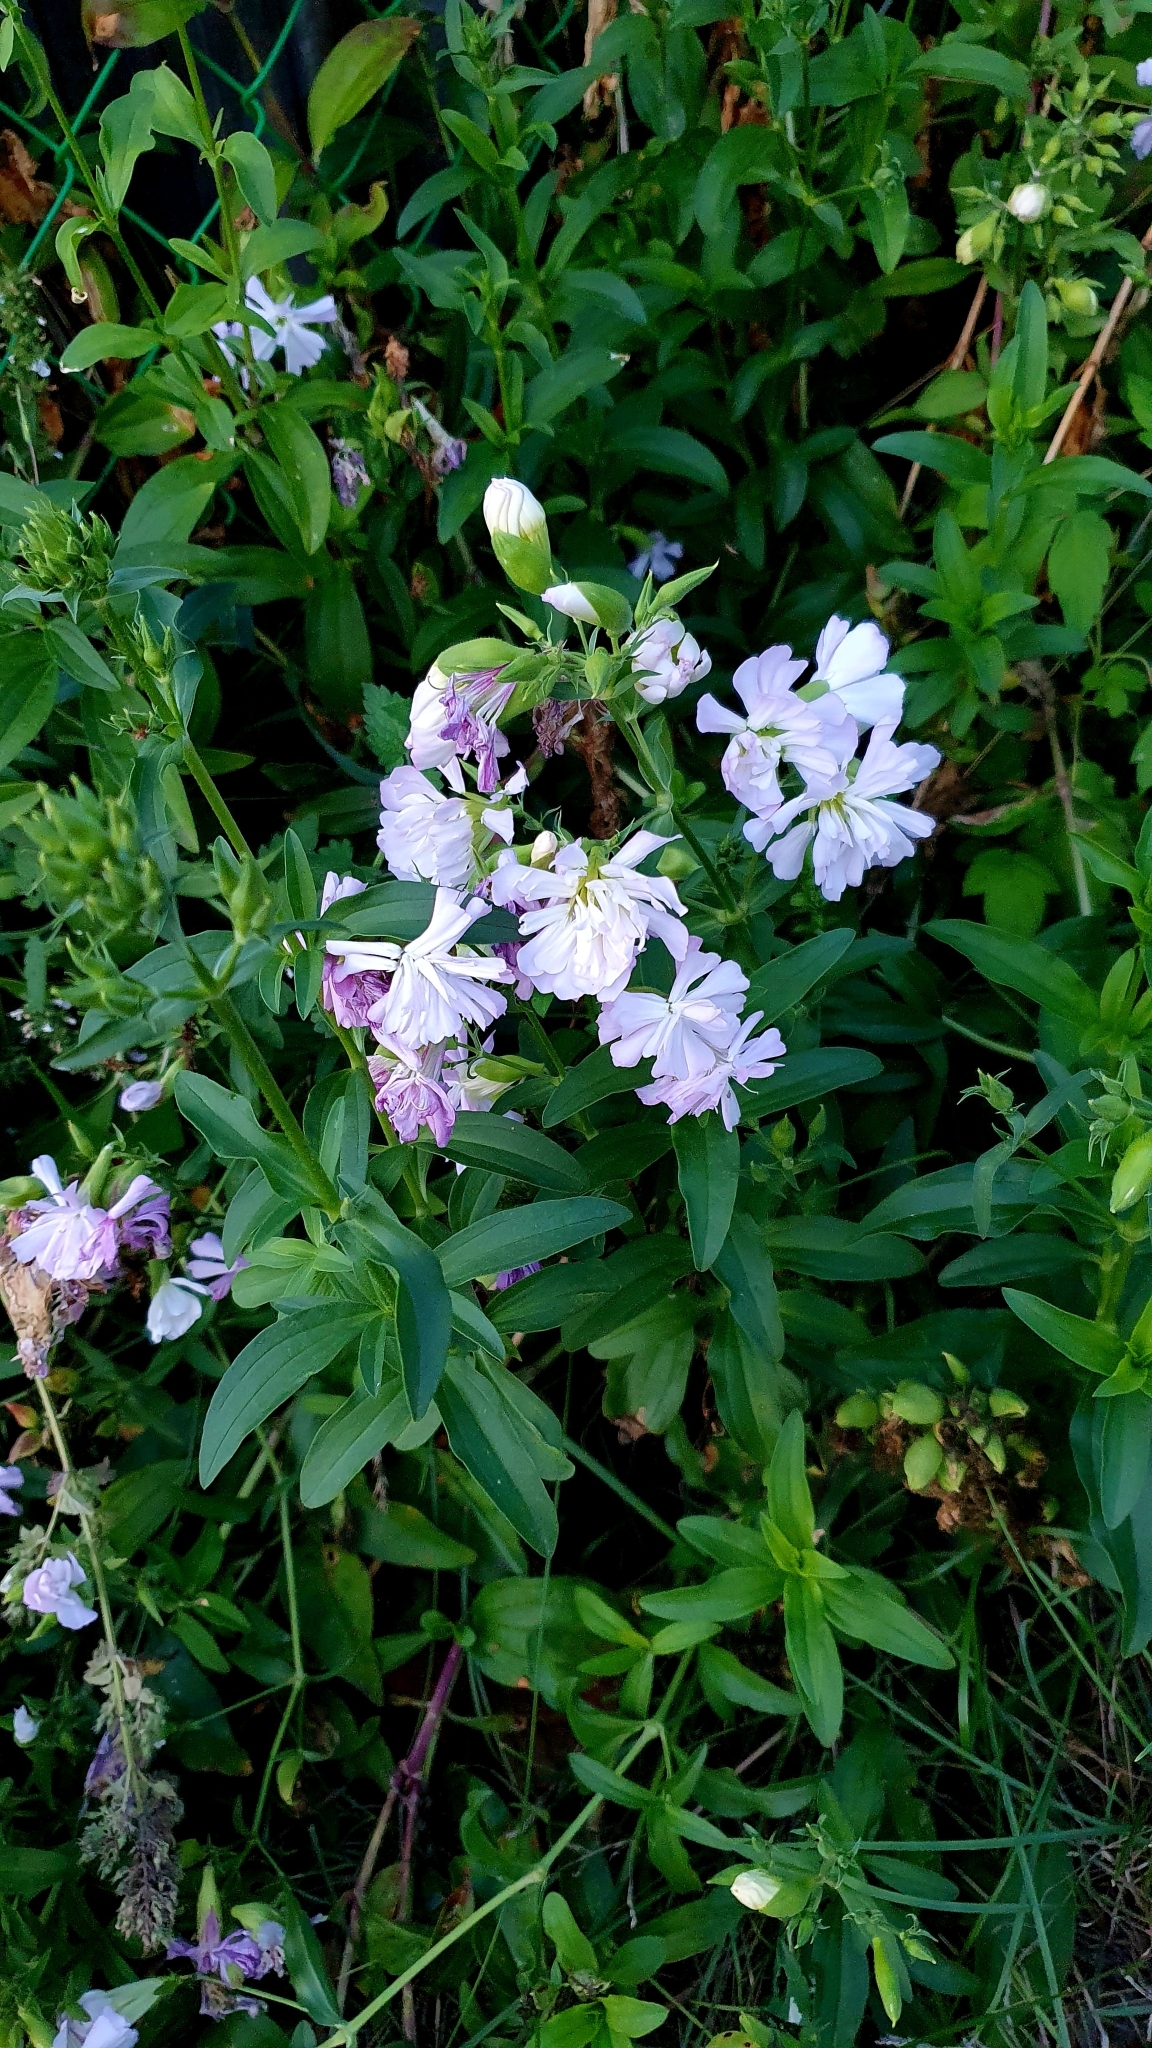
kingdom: Plantae
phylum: Tracheophyta
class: Magnoliopsida
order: Caryophyllales
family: Caryophyllaceae
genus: Saponaria
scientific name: Saponaria officinalis
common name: Soapwort
